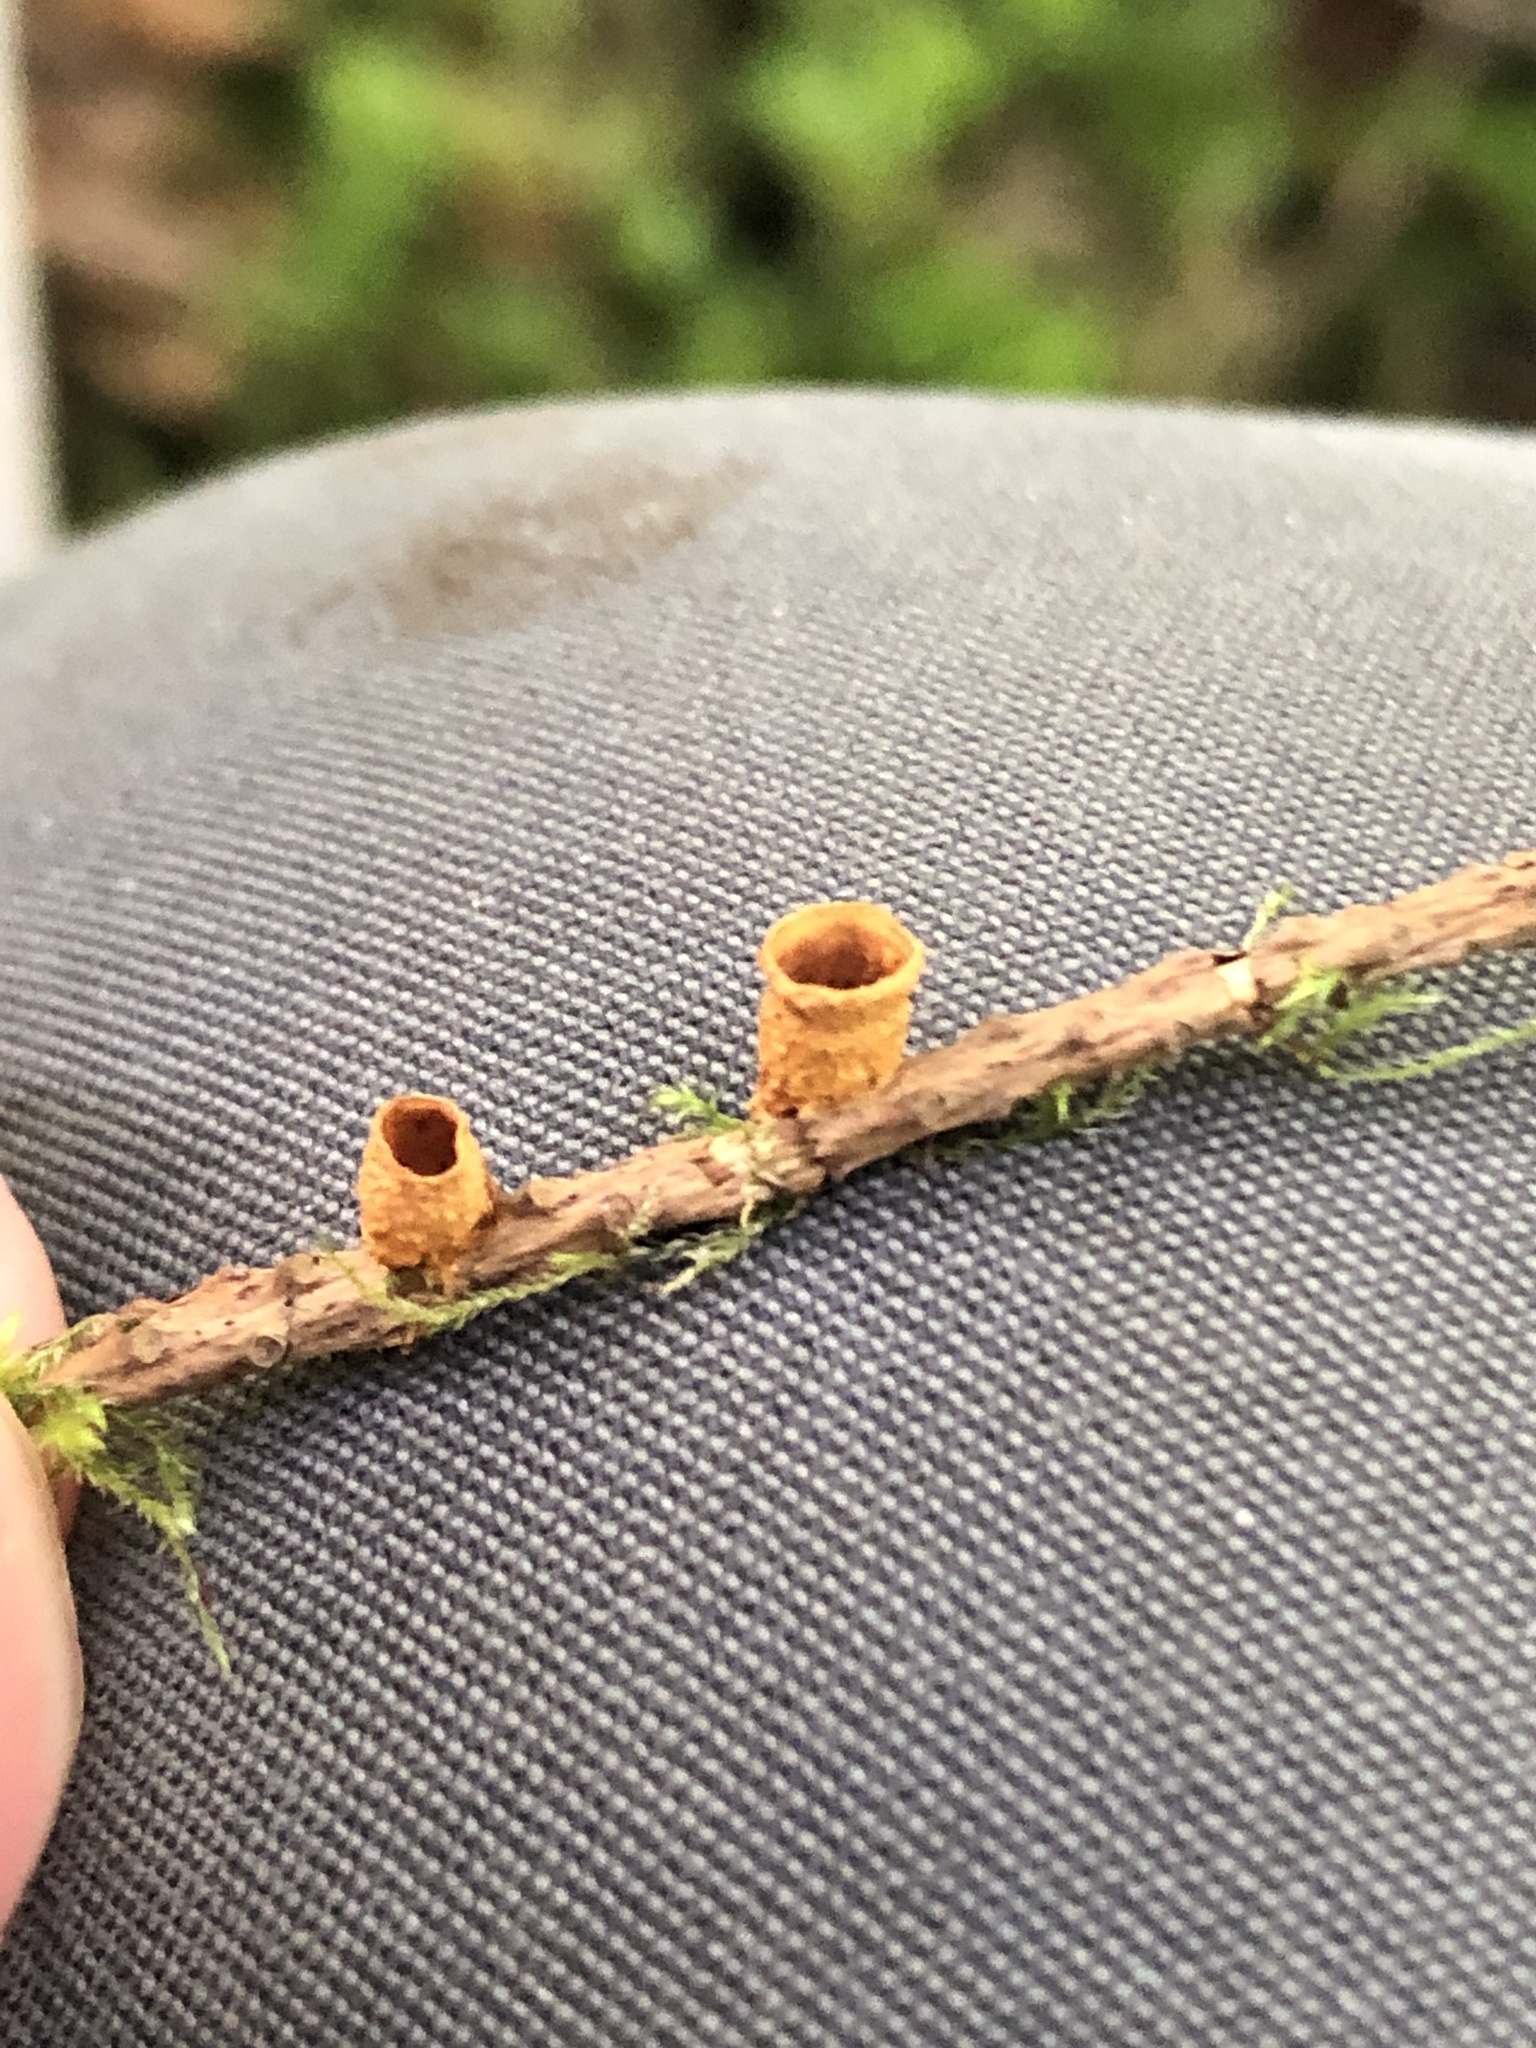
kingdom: Fungi
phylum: Basidiomycota
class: Agaricomycetes
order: Agaricales
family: Nidulariaceae
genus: Crucibulum
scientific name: Crucibulum laeve
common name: Common bird's nest
